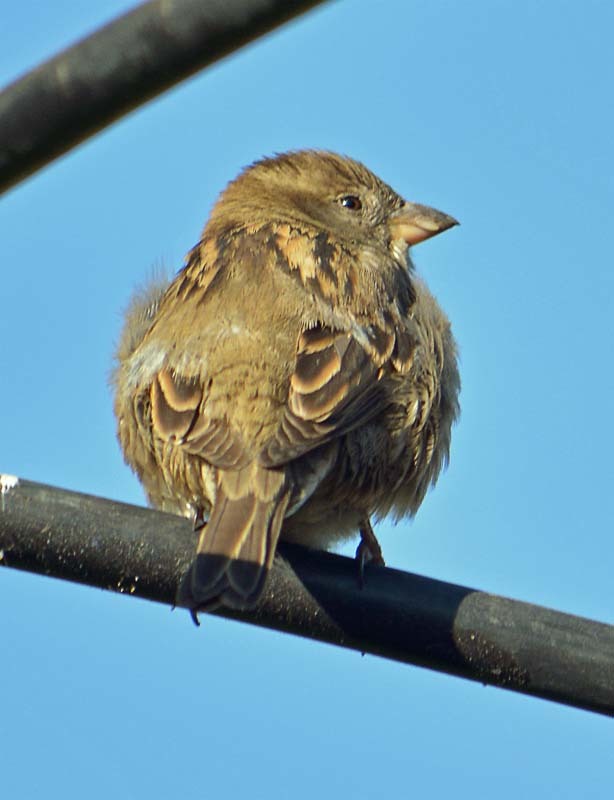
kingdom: Animalia
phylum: Chordata
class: Aves
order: Passeriformes
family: Passeridae
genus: Passer
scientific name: Passer domesticus
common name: House sparrow
